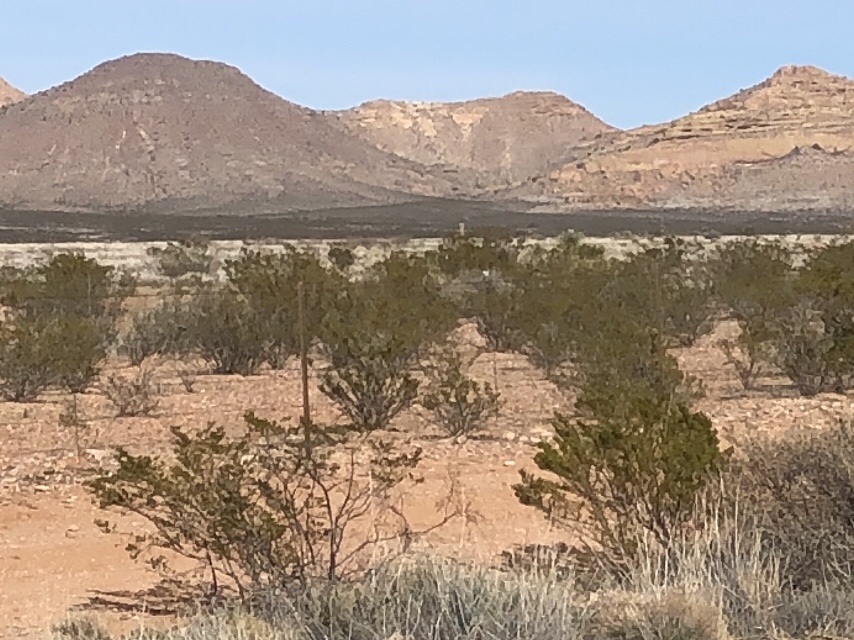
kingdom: Plantae
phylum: Tracheophyta
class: Magnoliopsida
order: Zygophyllales
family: Zygophyllaceae
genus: Larrea
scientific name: Larrea tridentata
